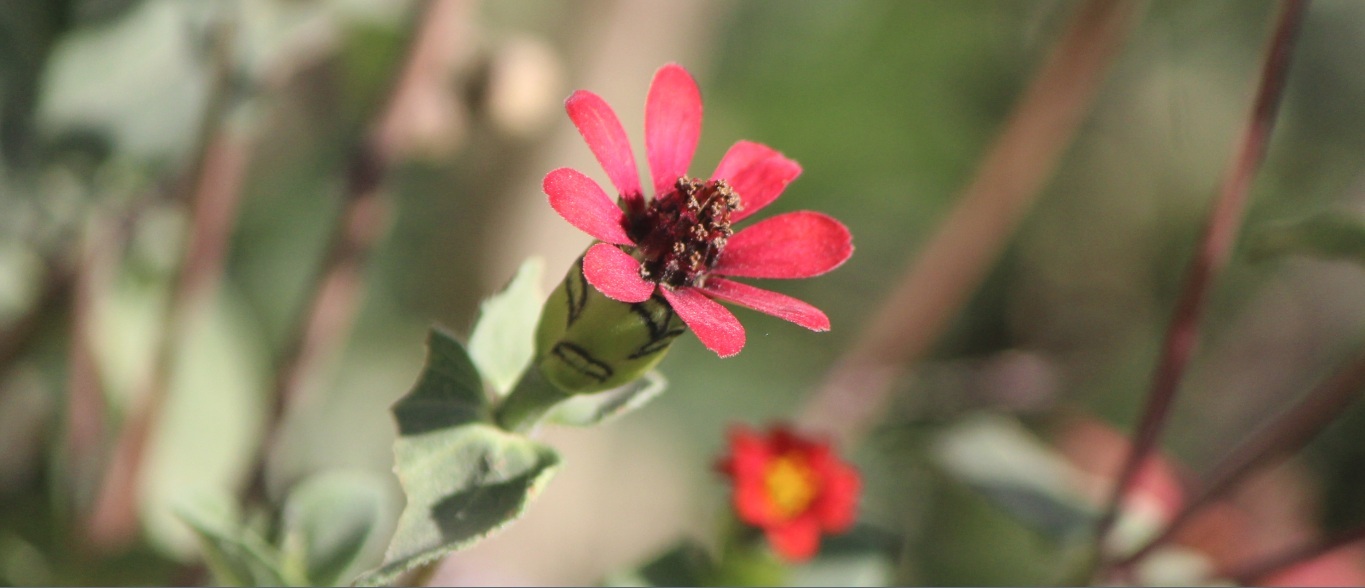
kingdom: Plantae
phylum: Tracheophyta
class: Magnoliopsida
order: Asterales
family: Asteraceae
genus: Zinnia
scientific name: Zinnia peruviana
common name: Peruvian zinnia
